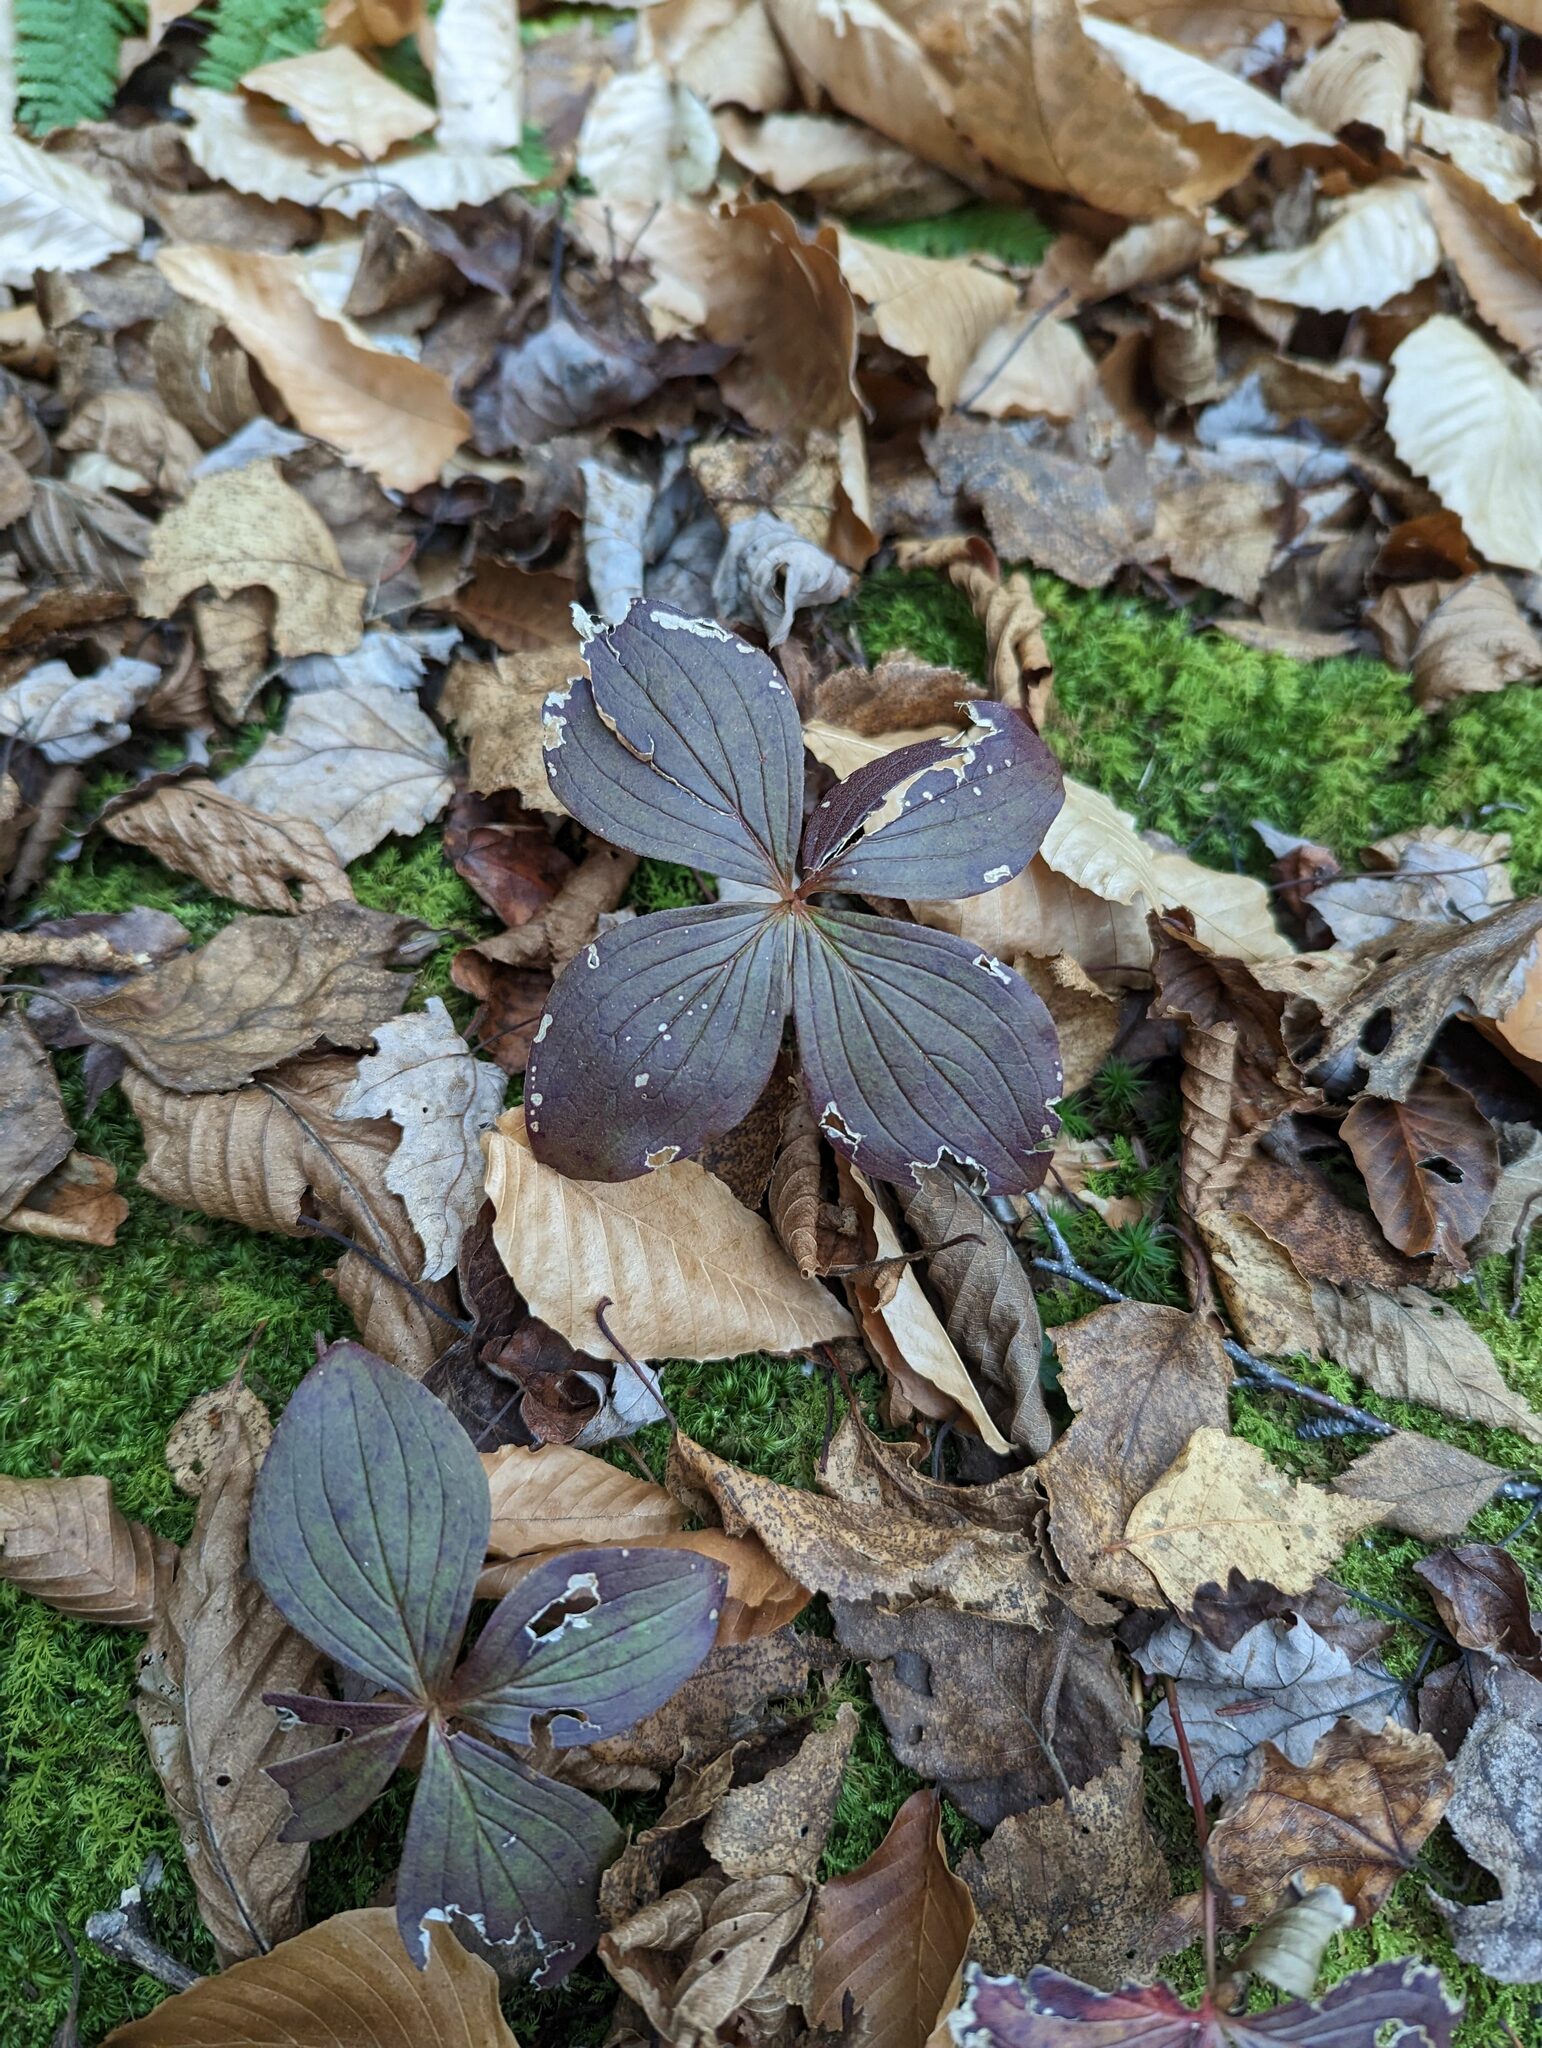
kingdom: Plantae
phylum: Tracheophyta
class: Magnoliopsida
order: Cornales
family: Cornaceae
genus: Cornus
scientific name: Cornus canadensis
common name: Creeping dogwood
